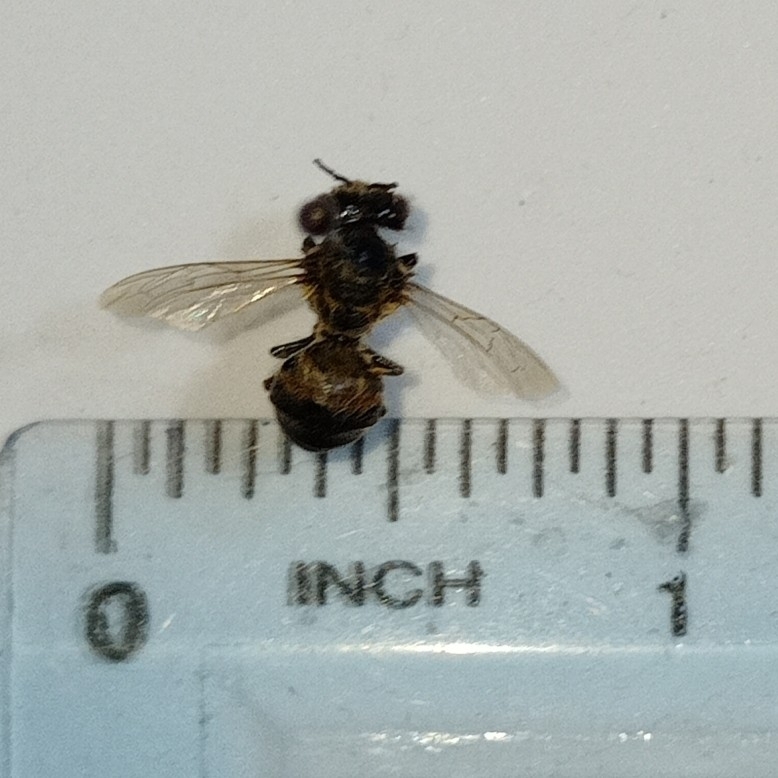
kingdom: Animalia
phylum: Arthropoda
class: Insecta
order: Hymenoptera
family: Apidae
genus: Apis
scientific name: Apis mellifera
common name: Honey bee
